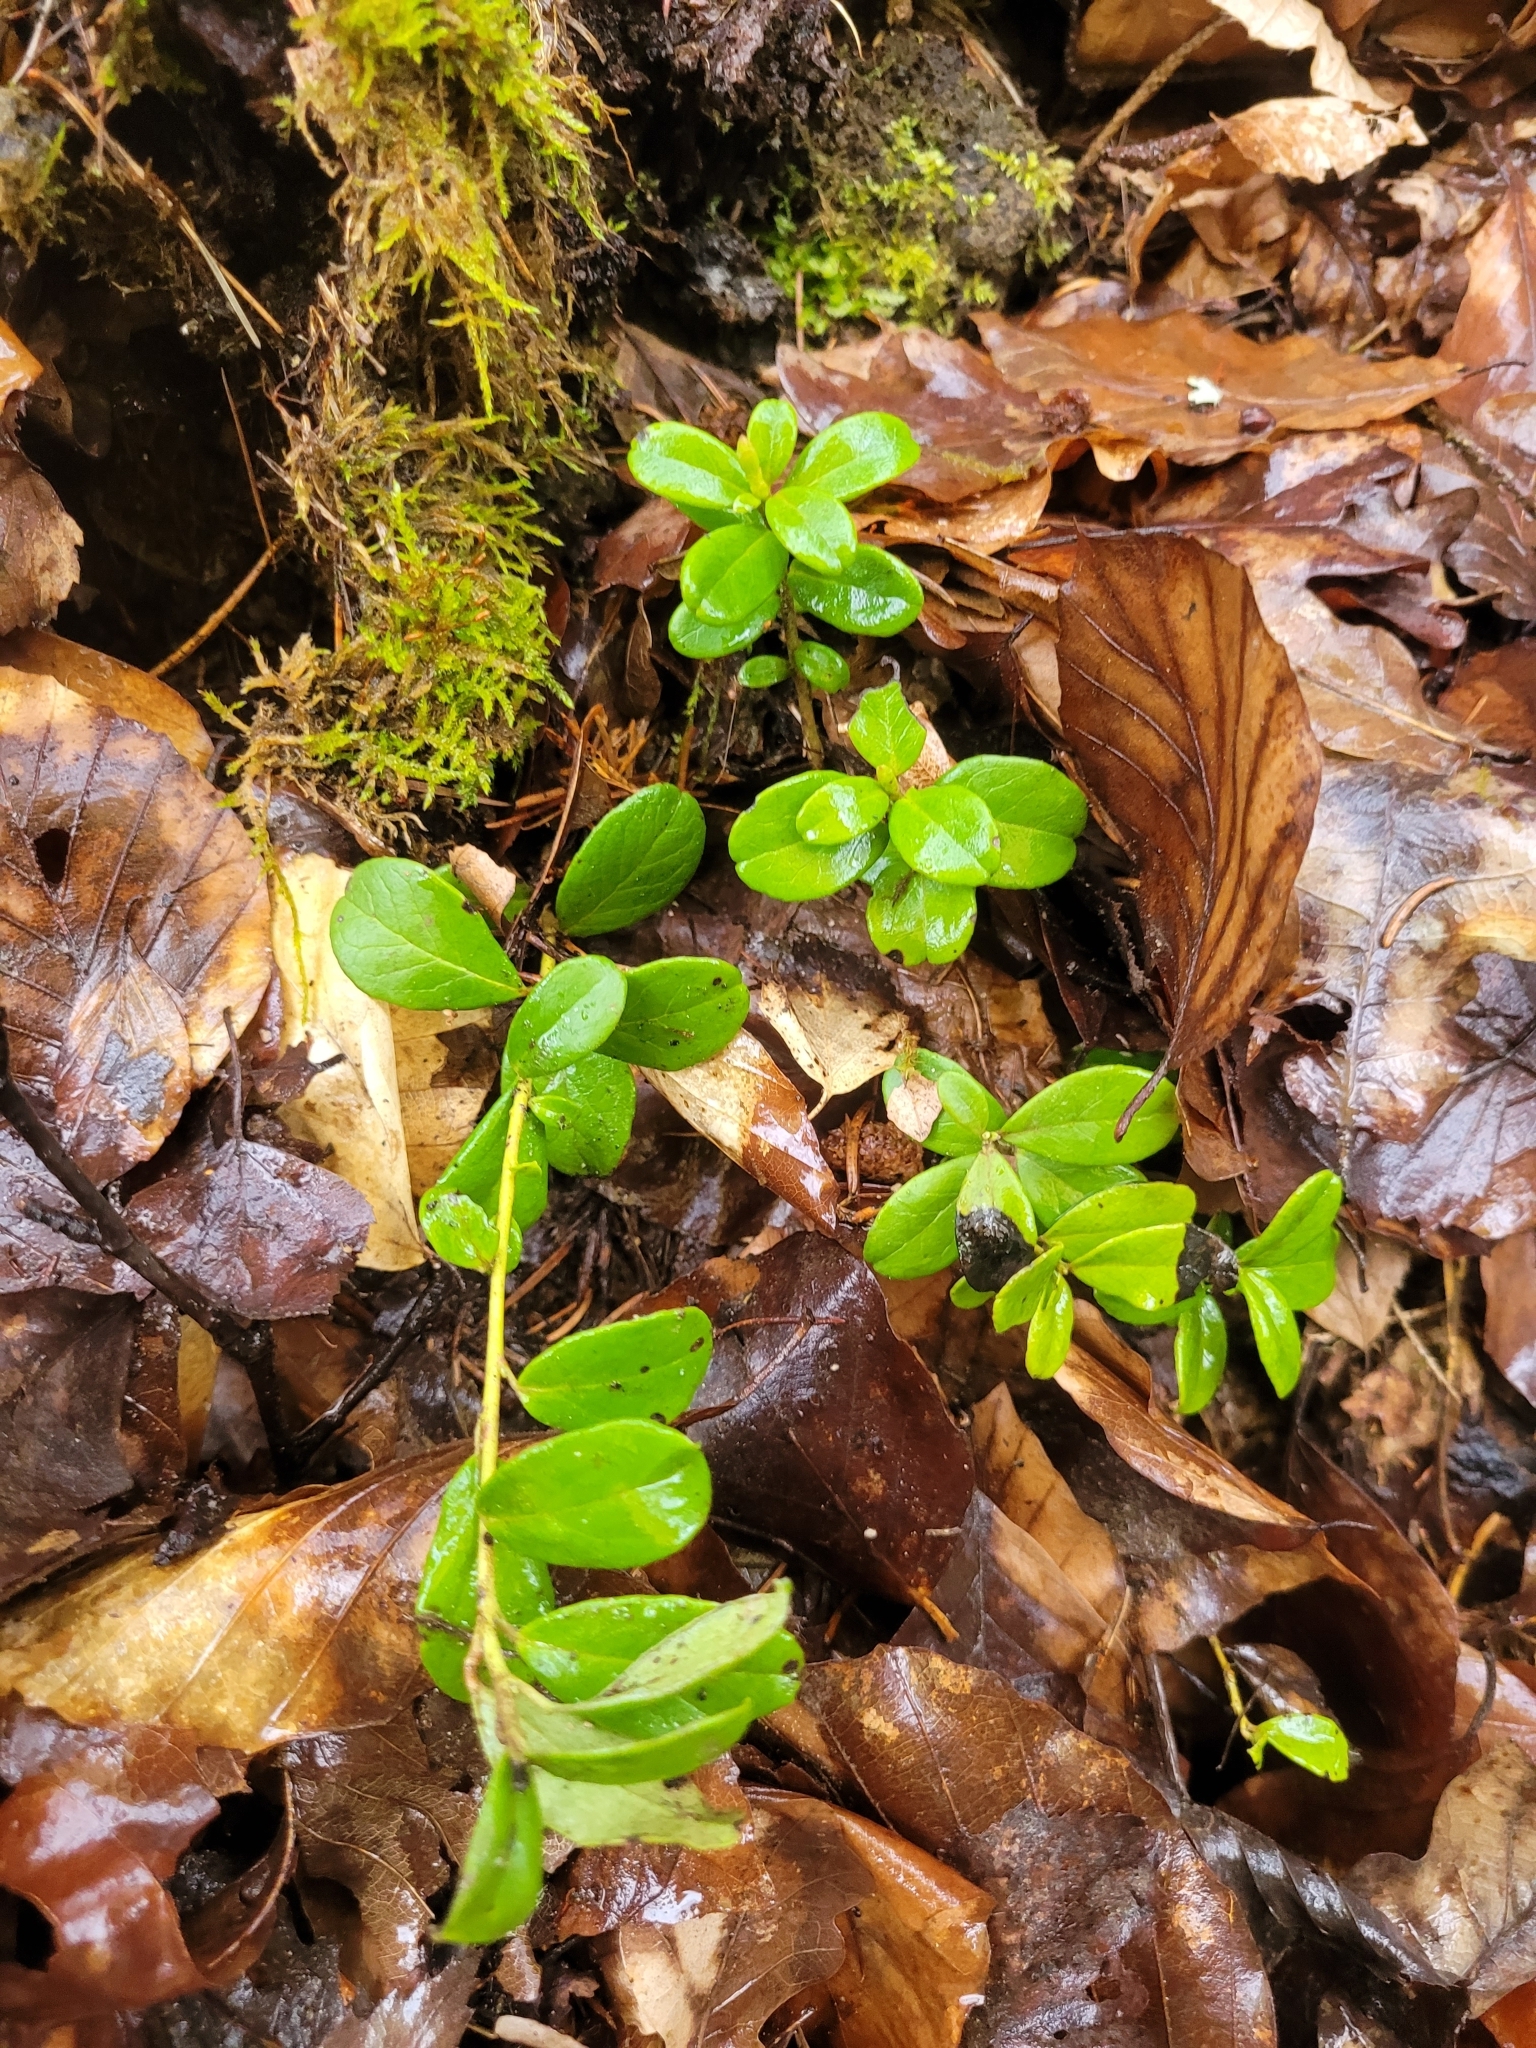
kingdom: Plantae
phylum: Tracheophyta
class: Magnoliopsida
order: Ericales
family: Ericaceae
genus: Vaccinium
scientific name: Vaccinium vitis-idaea
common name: Cowberry
